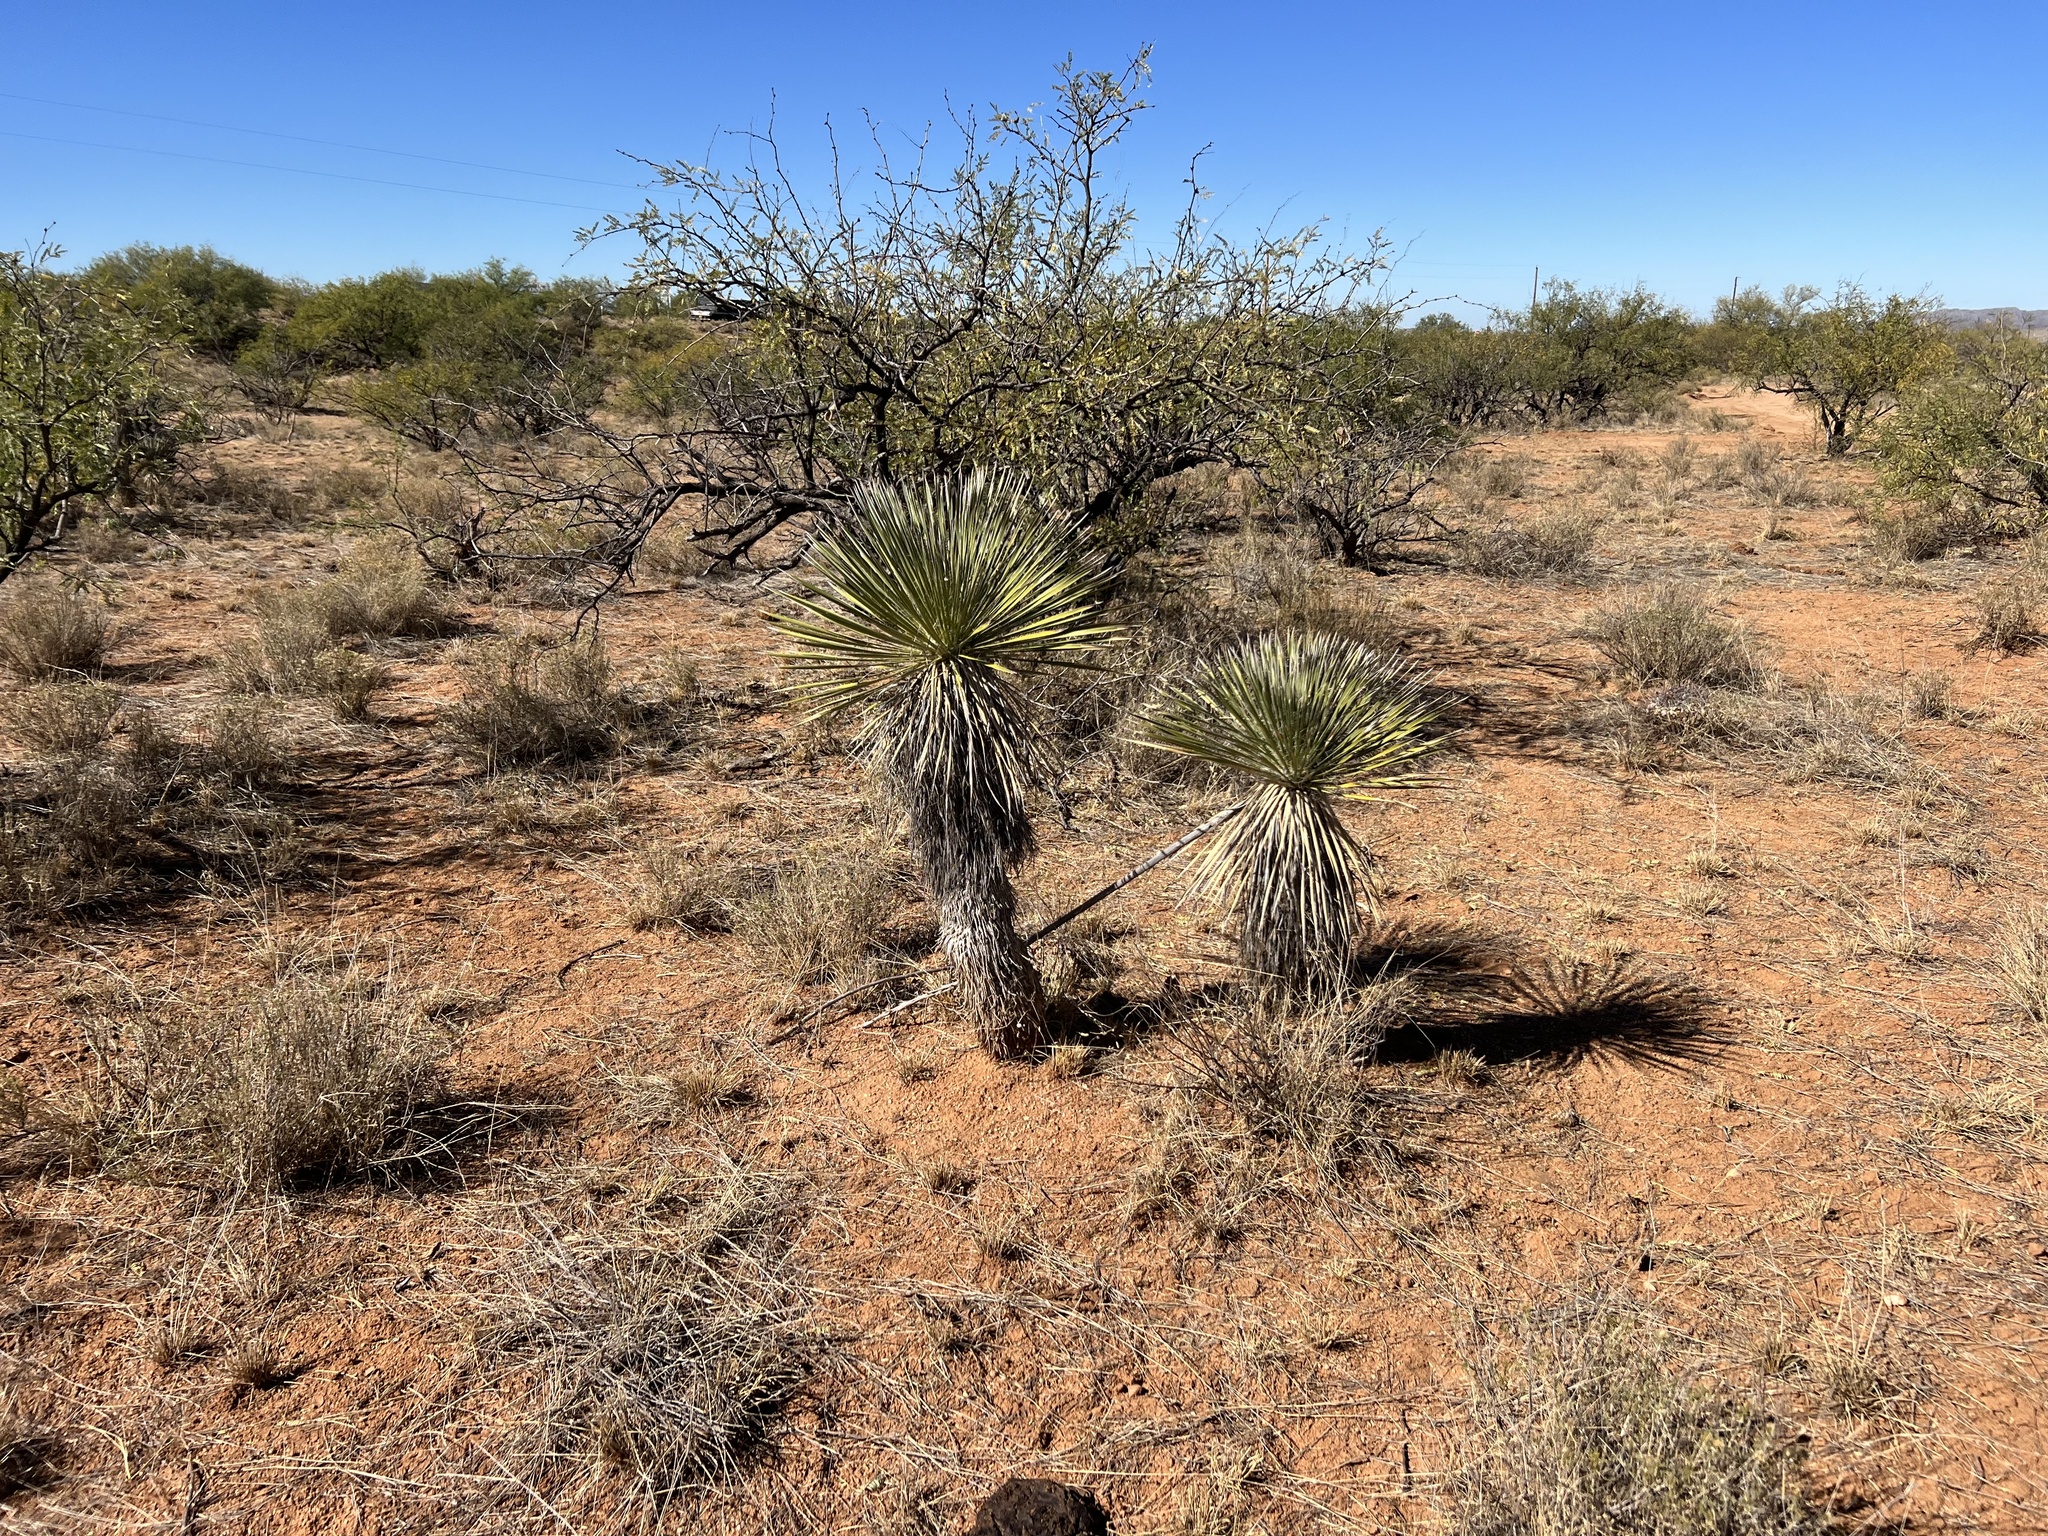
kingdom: Plantae
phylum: Tracheophyta
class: Liliopsida
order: Asparagales
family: Asparagaceae
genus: Yucca
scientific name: Yucca elata
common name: Palmella
